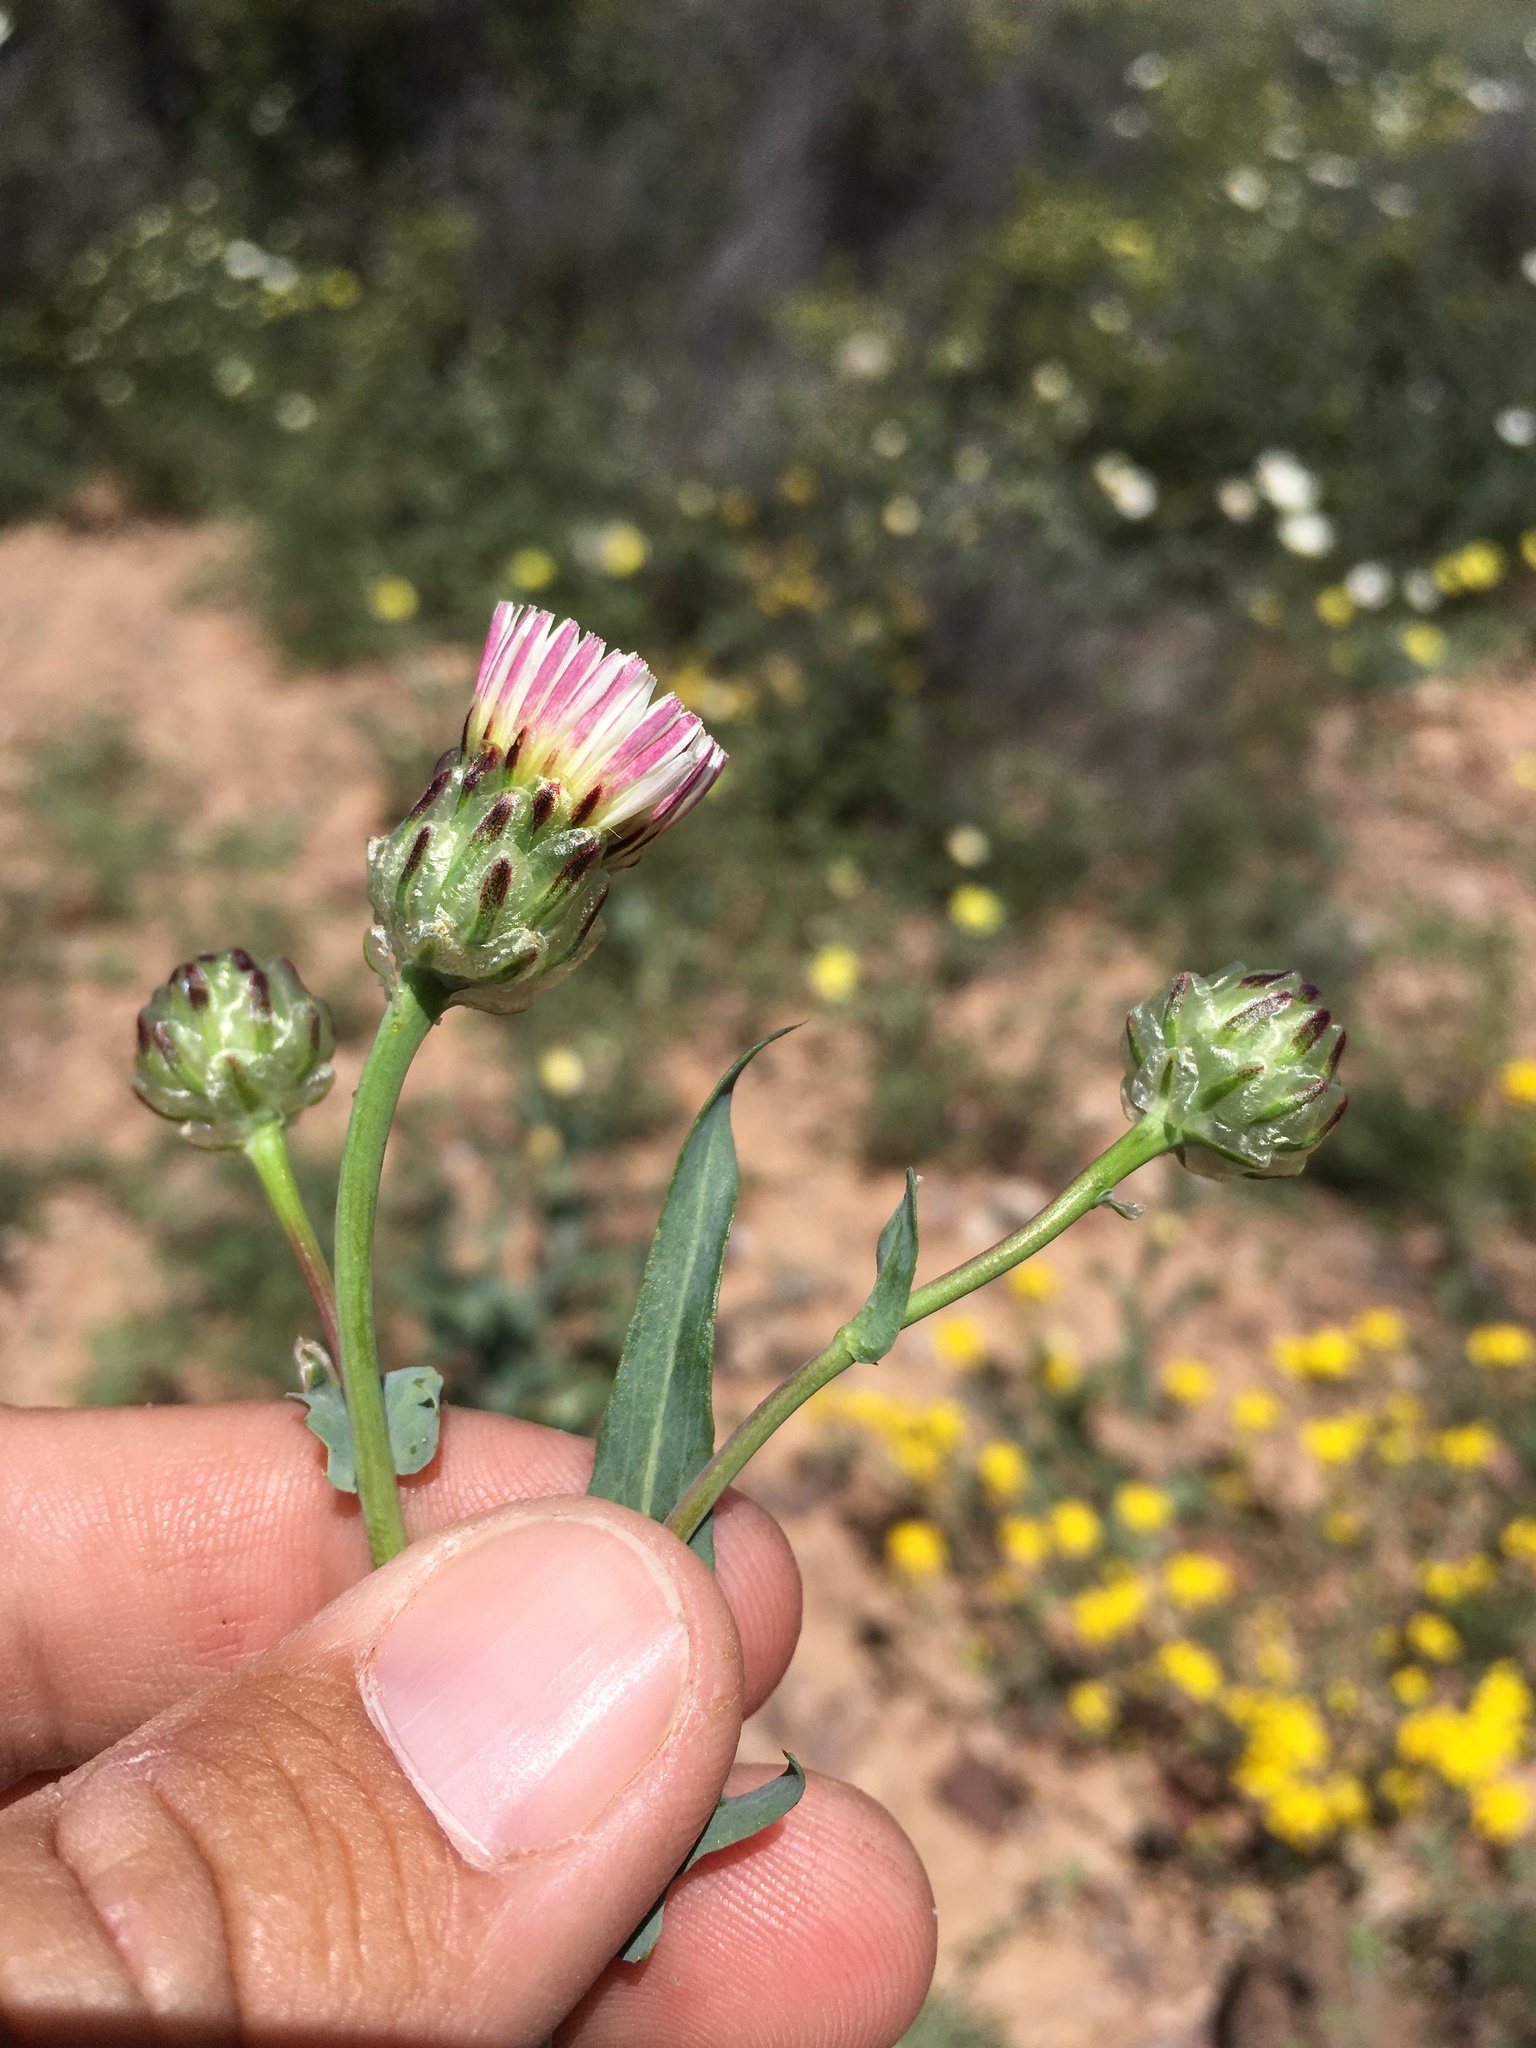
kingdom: Plantae
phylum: Tracheophyta
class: Magnoliopsida
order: Asterales
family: Asteraceae
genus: Malacothrix
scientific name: Malacothrix coulteri
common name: Snake's-head
